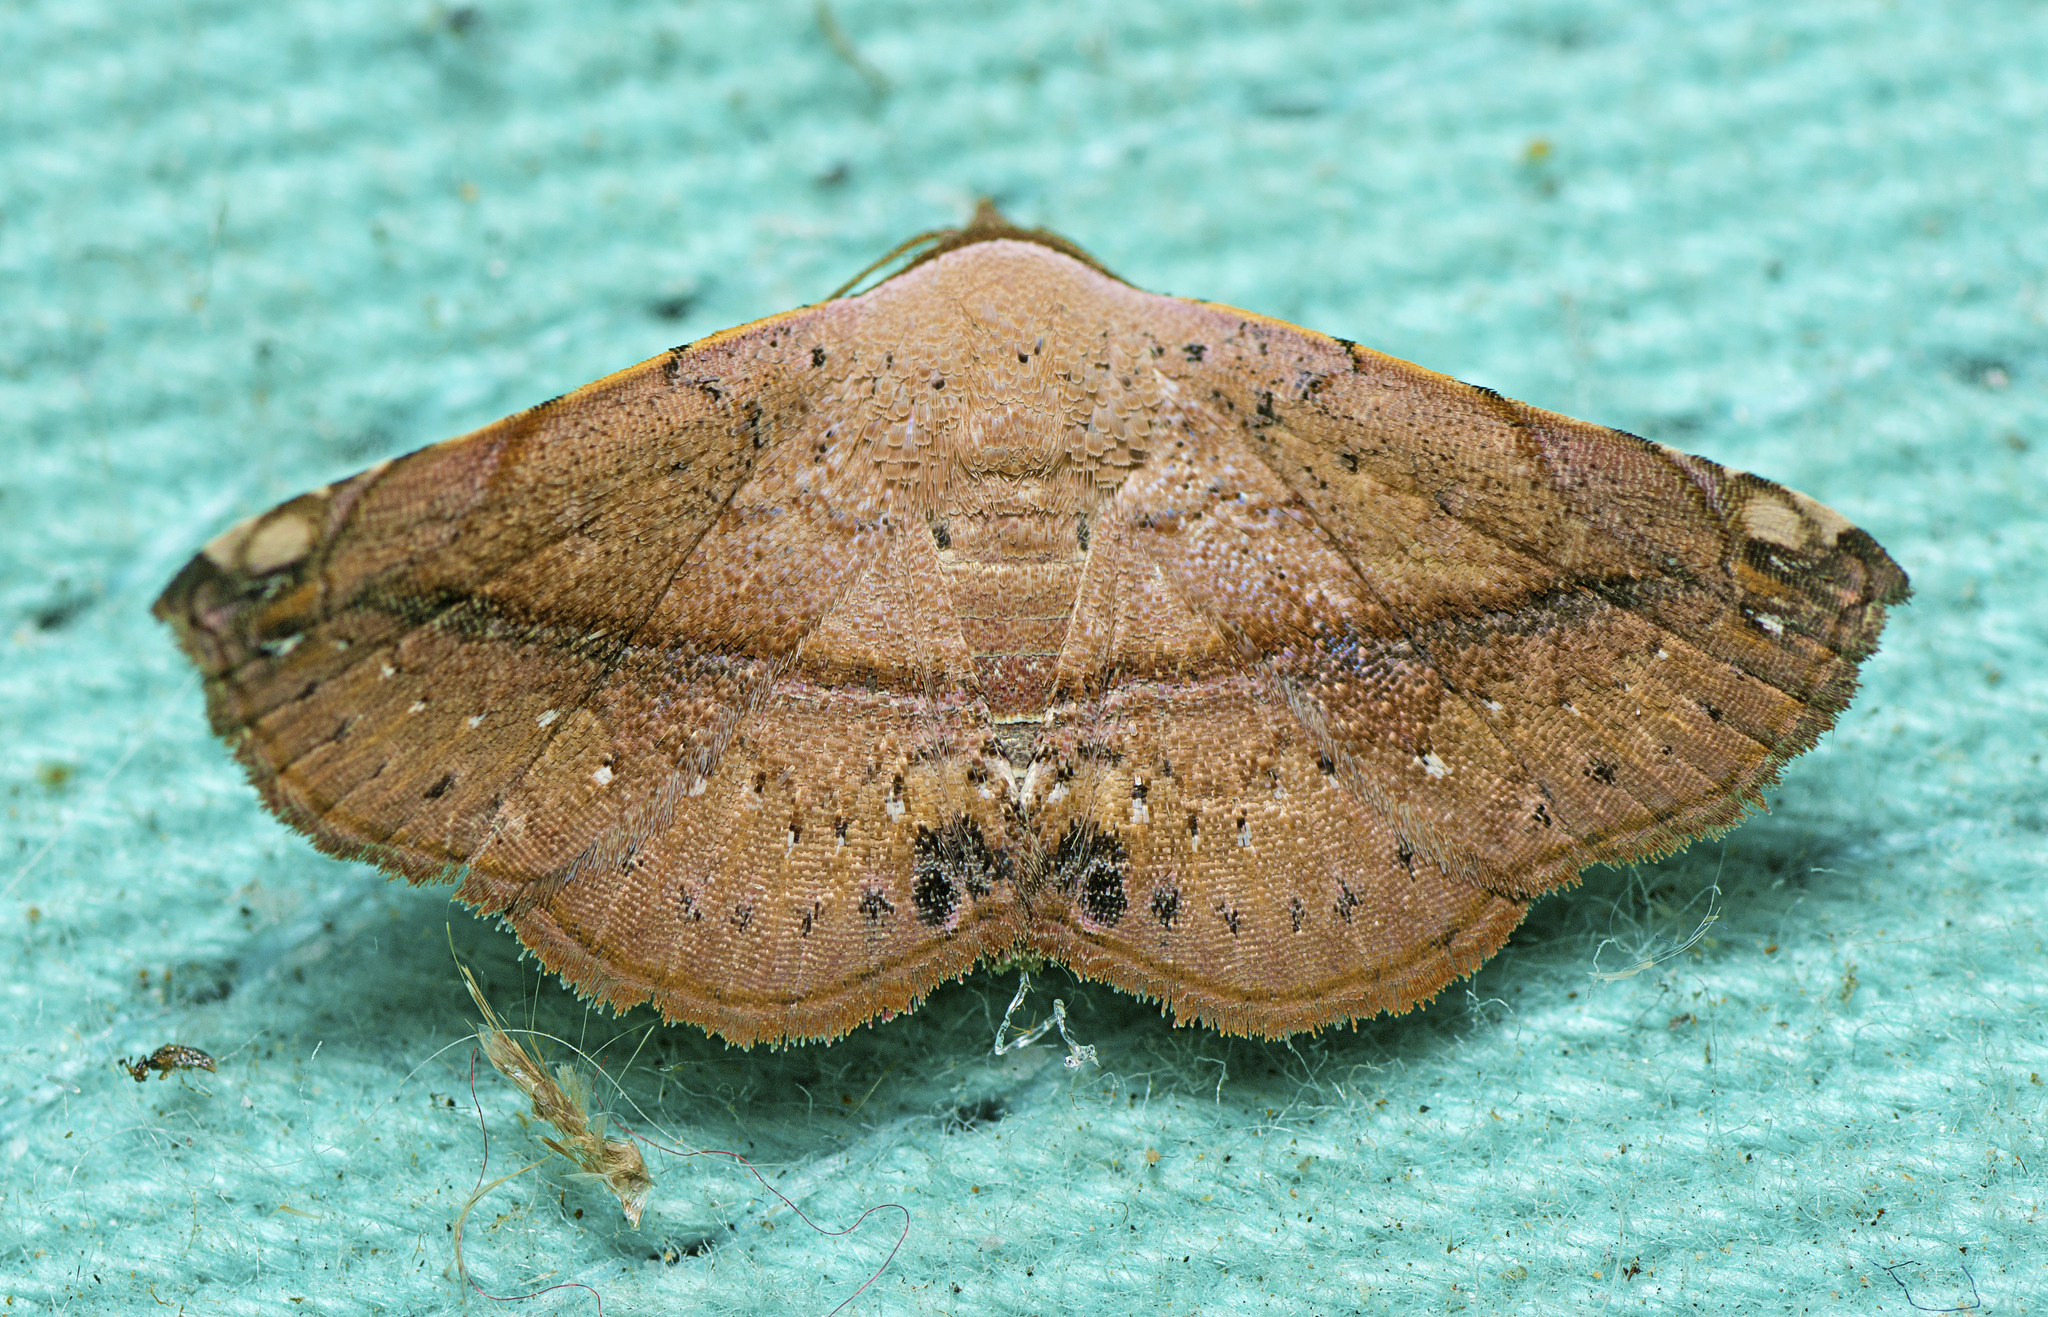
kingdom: Animalia
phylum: Arthropoda
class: Insecta
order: Lepidoptera
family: Noctuidae
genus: Eublemma
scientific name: Eublemma abrupta
